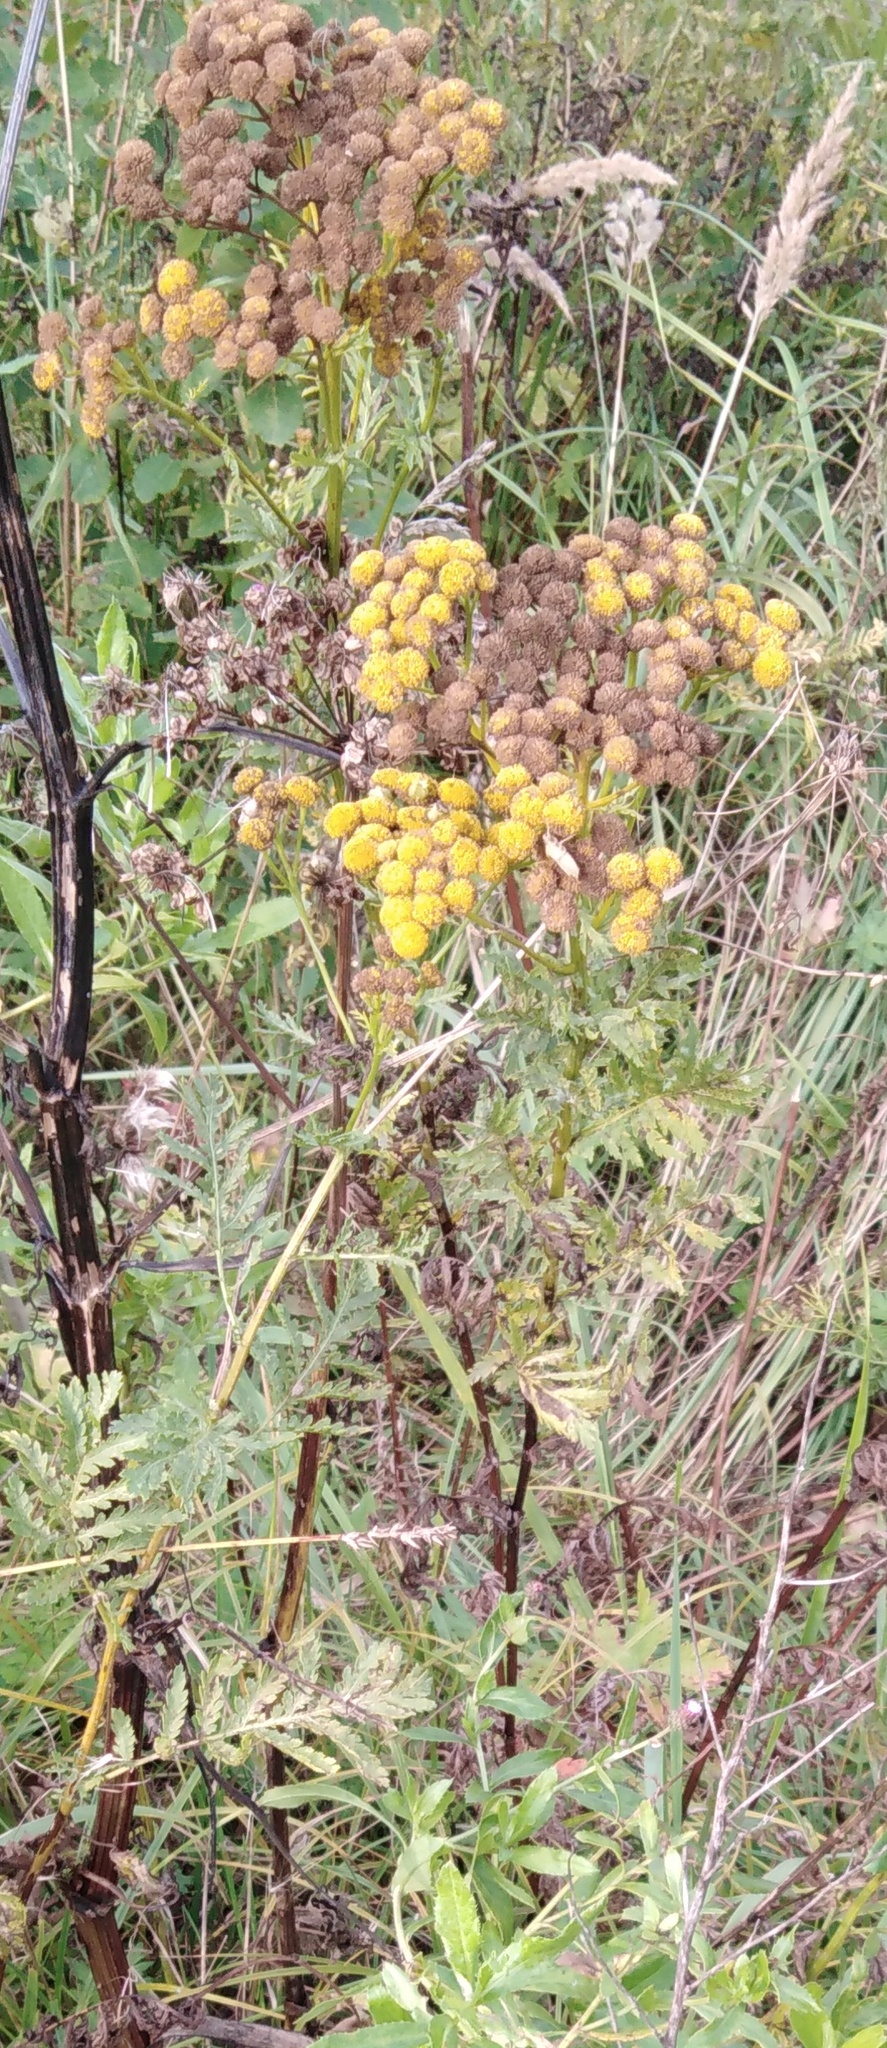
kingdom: Plantae
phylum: Tracheophyta
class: Magnoliopsida
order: Asterales
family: Asteraceae
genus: Tanacetum
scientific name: Tanacetum vulgare
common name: Common tansy
